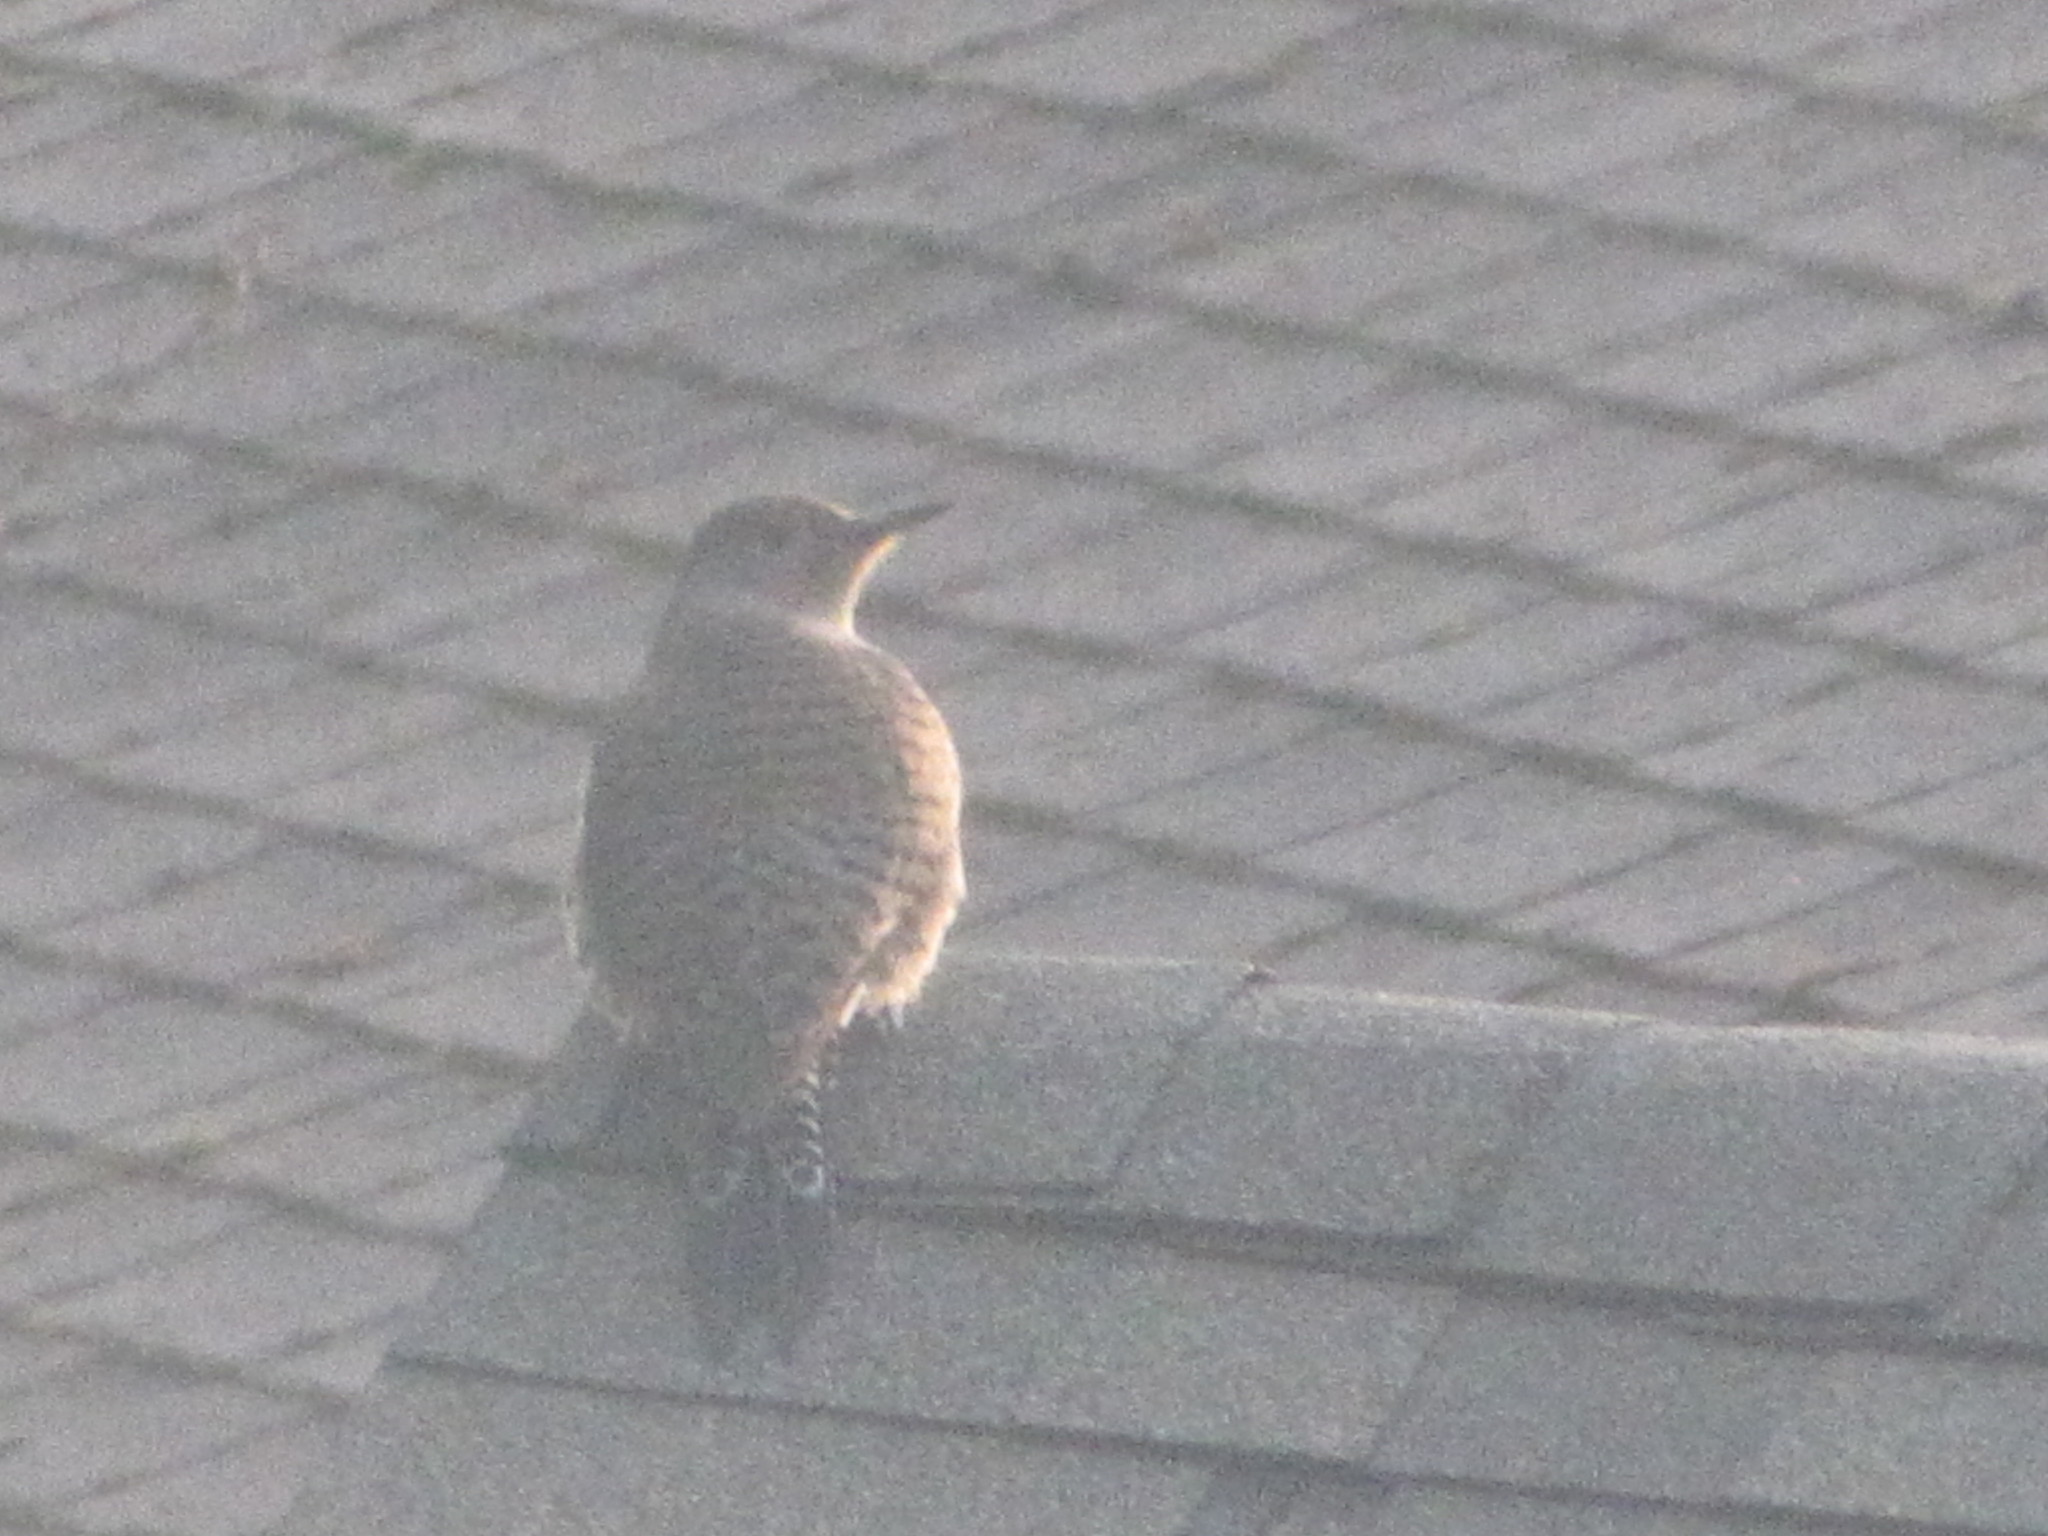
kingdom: Animalia
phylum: Chordata
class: Aves
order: Piciformes
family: Picidae
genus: Colaptes
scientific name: Colaptes auratus
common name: Northern flicker
